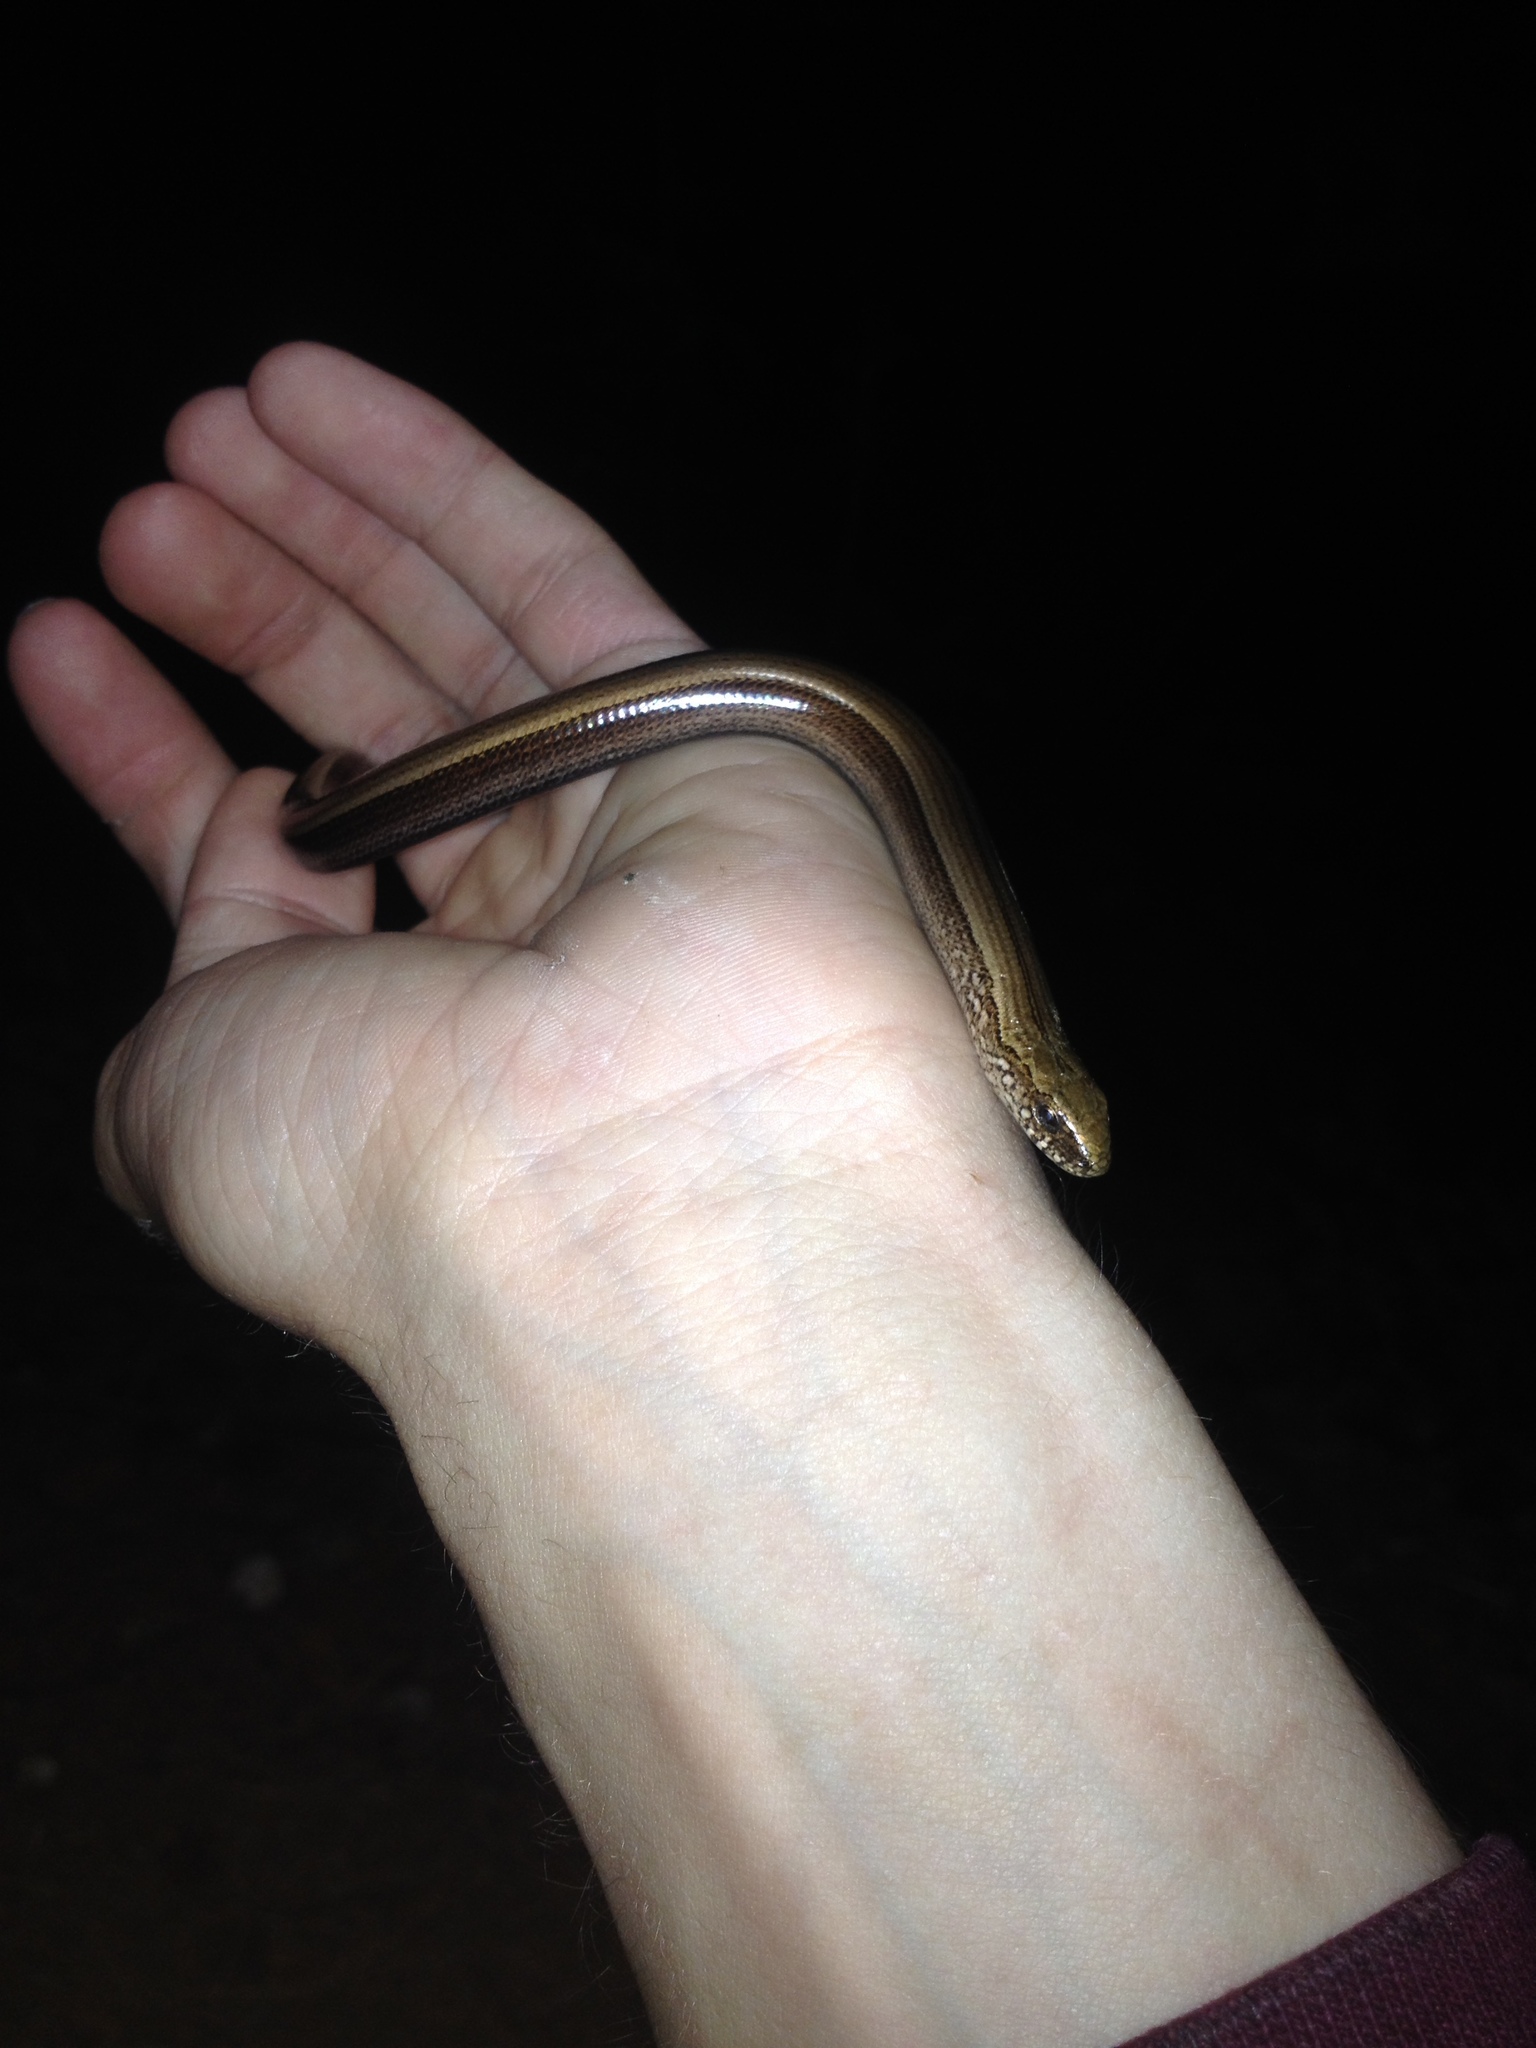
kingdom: Animalia
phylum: Chordata
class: Squamata
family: Anguidae
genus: Anguis
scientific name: Anguis colchica
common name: Slow worm
